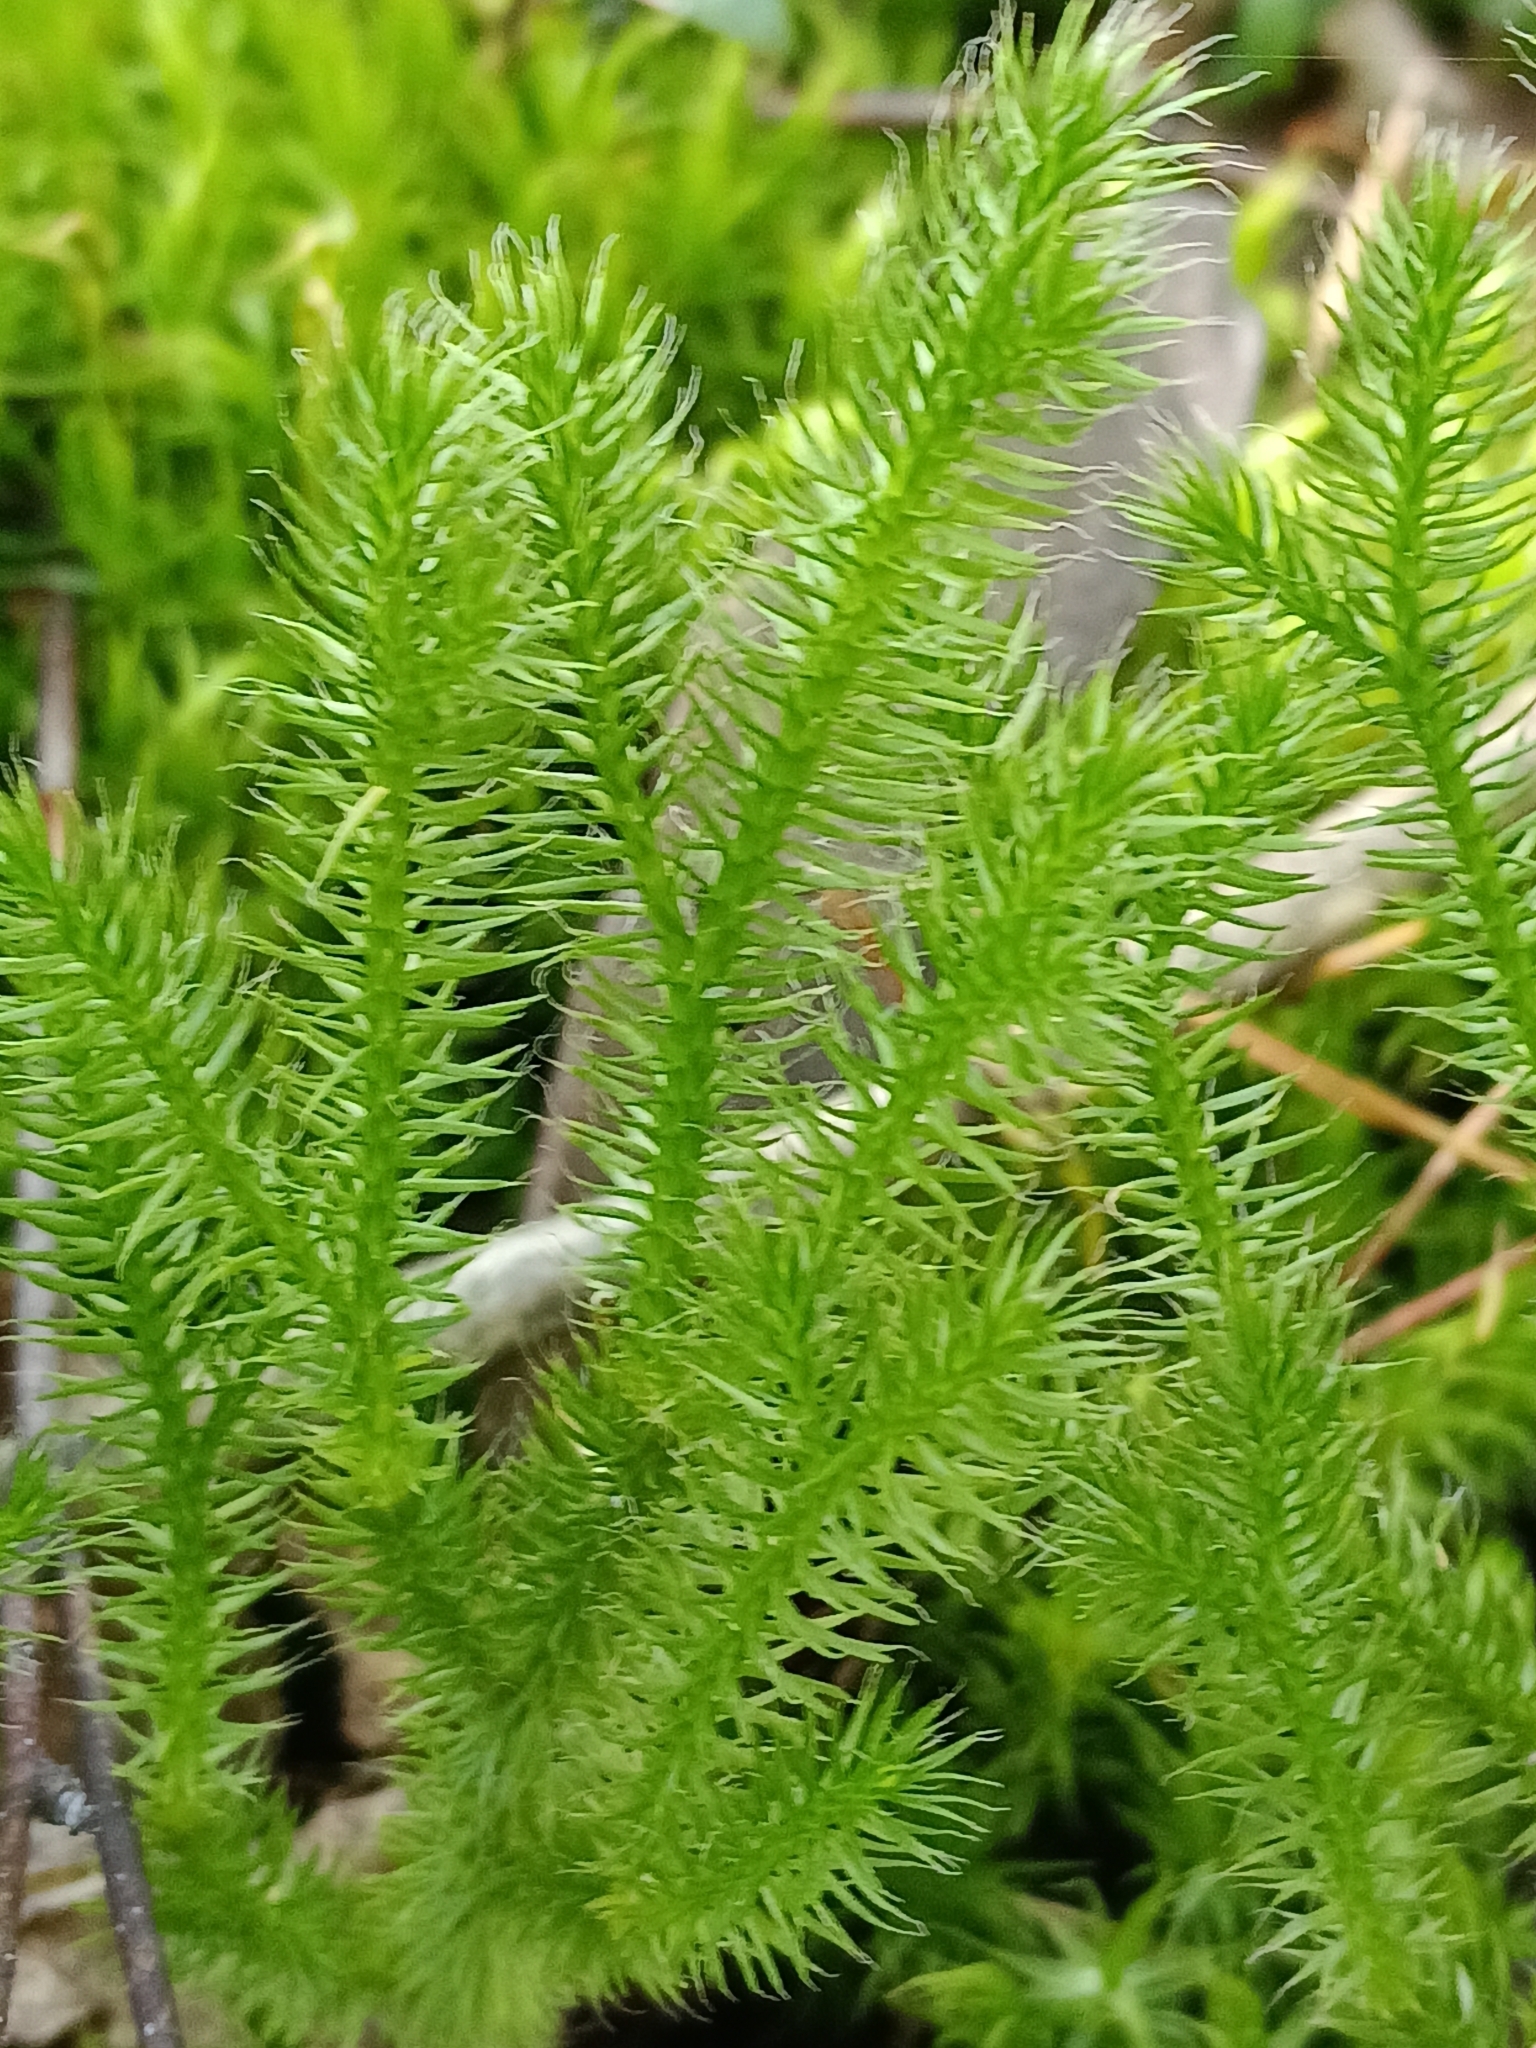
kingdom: Plantae
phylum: Tracheophyta
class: Lycopodiopsida
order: Lycopodiales
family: Lycopodiaceae
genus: Lycopodium
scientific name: Lycopodium clavatum
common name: Stag's-horn clubmoss
